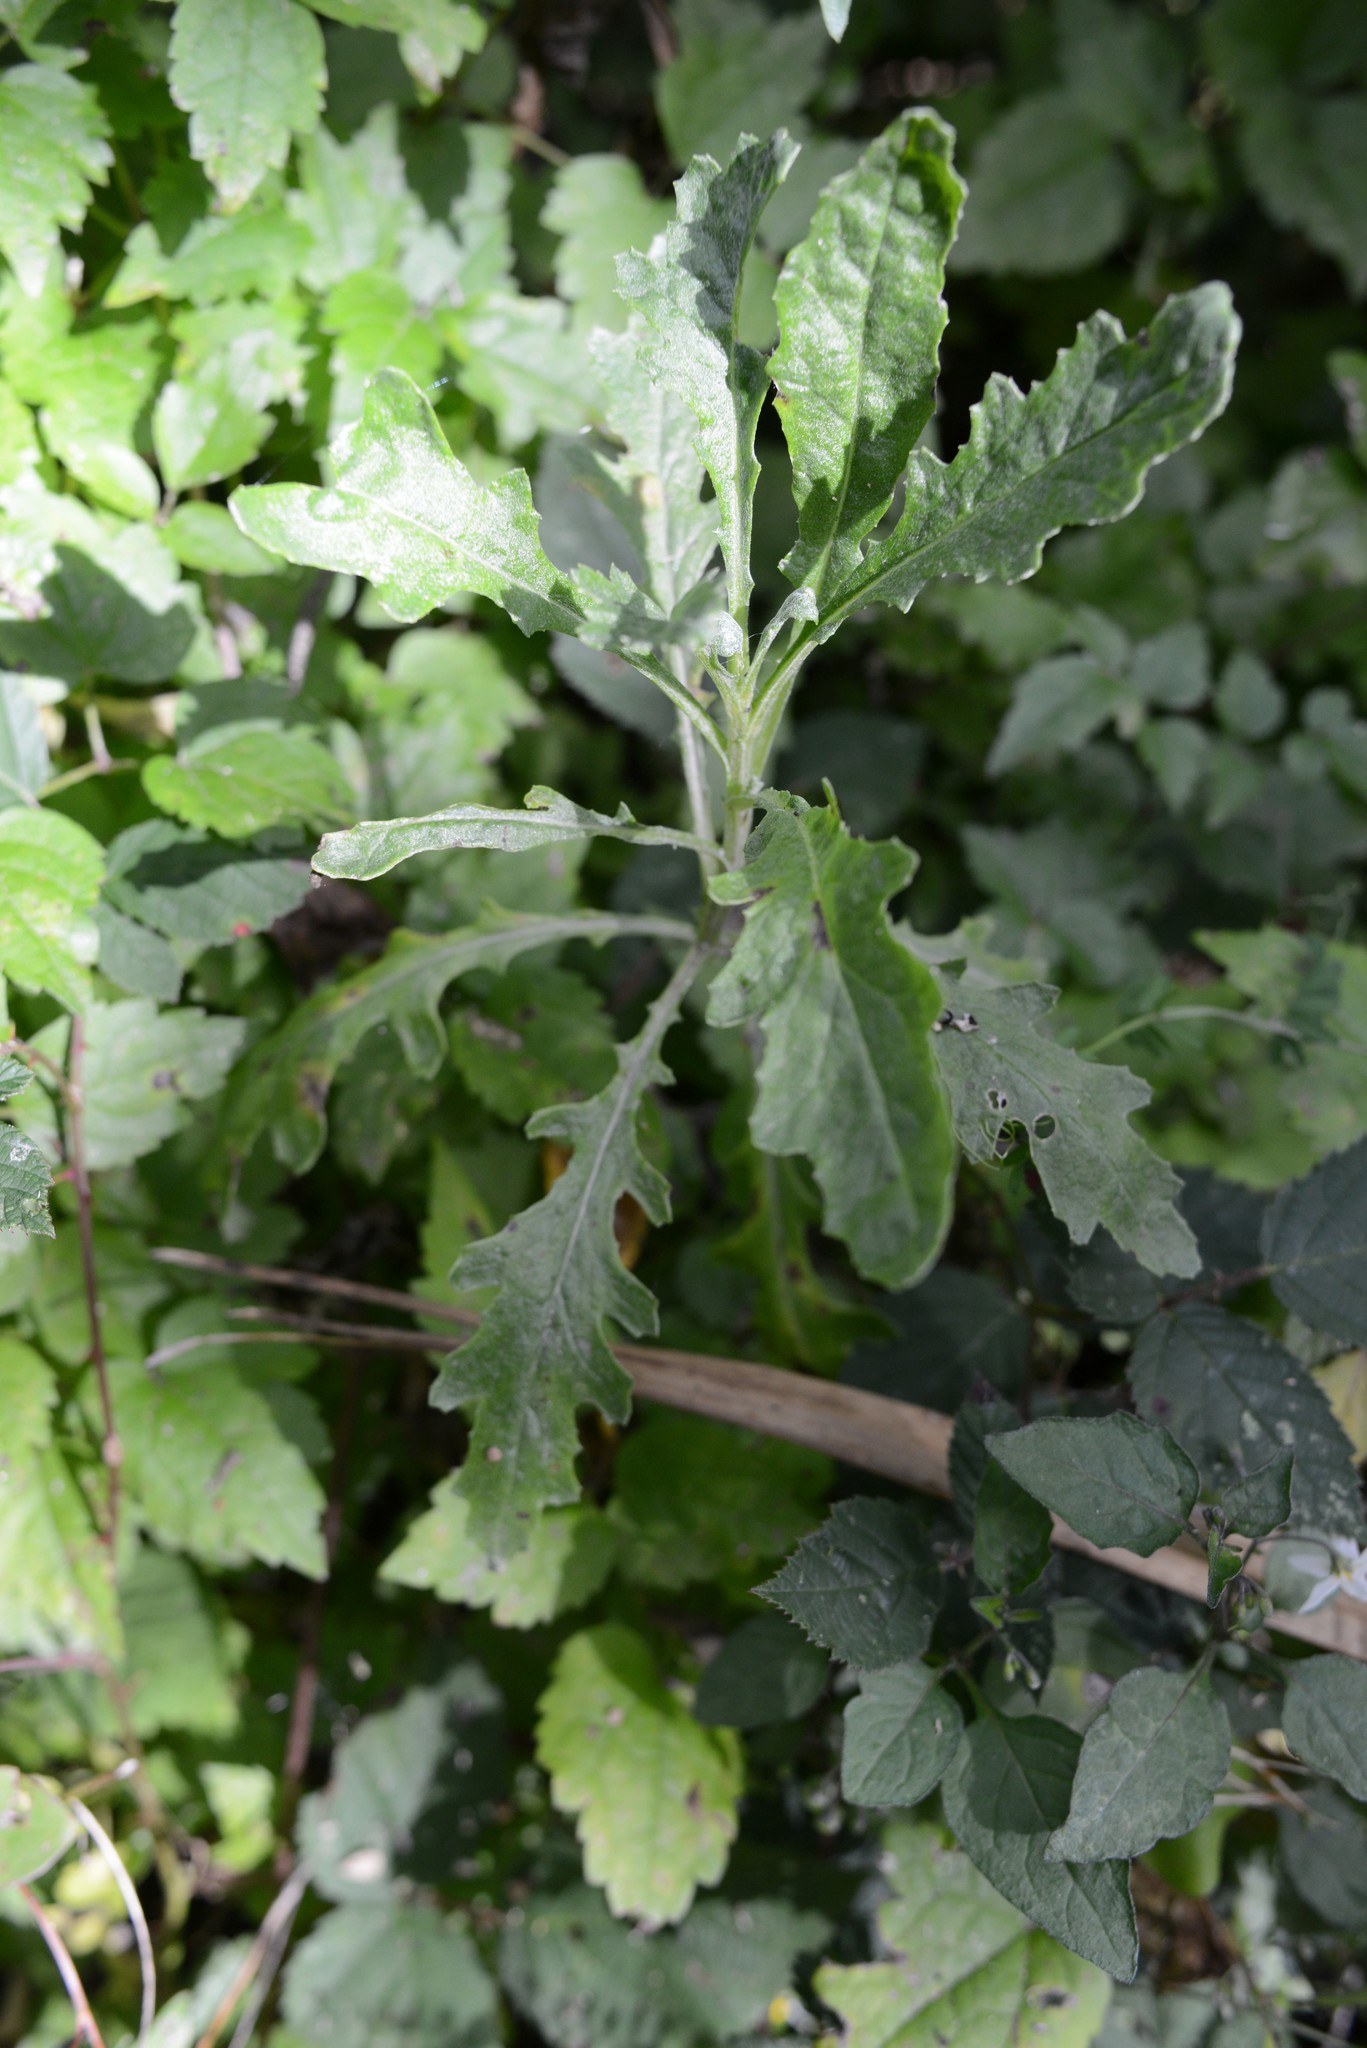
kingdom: Plantae
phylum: Tracheophyta
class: Magnoliopsida
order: Asterales
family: Asteraceae
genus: Senecio
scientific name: Senecio glomeratus
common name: Cutleaf burnweed
